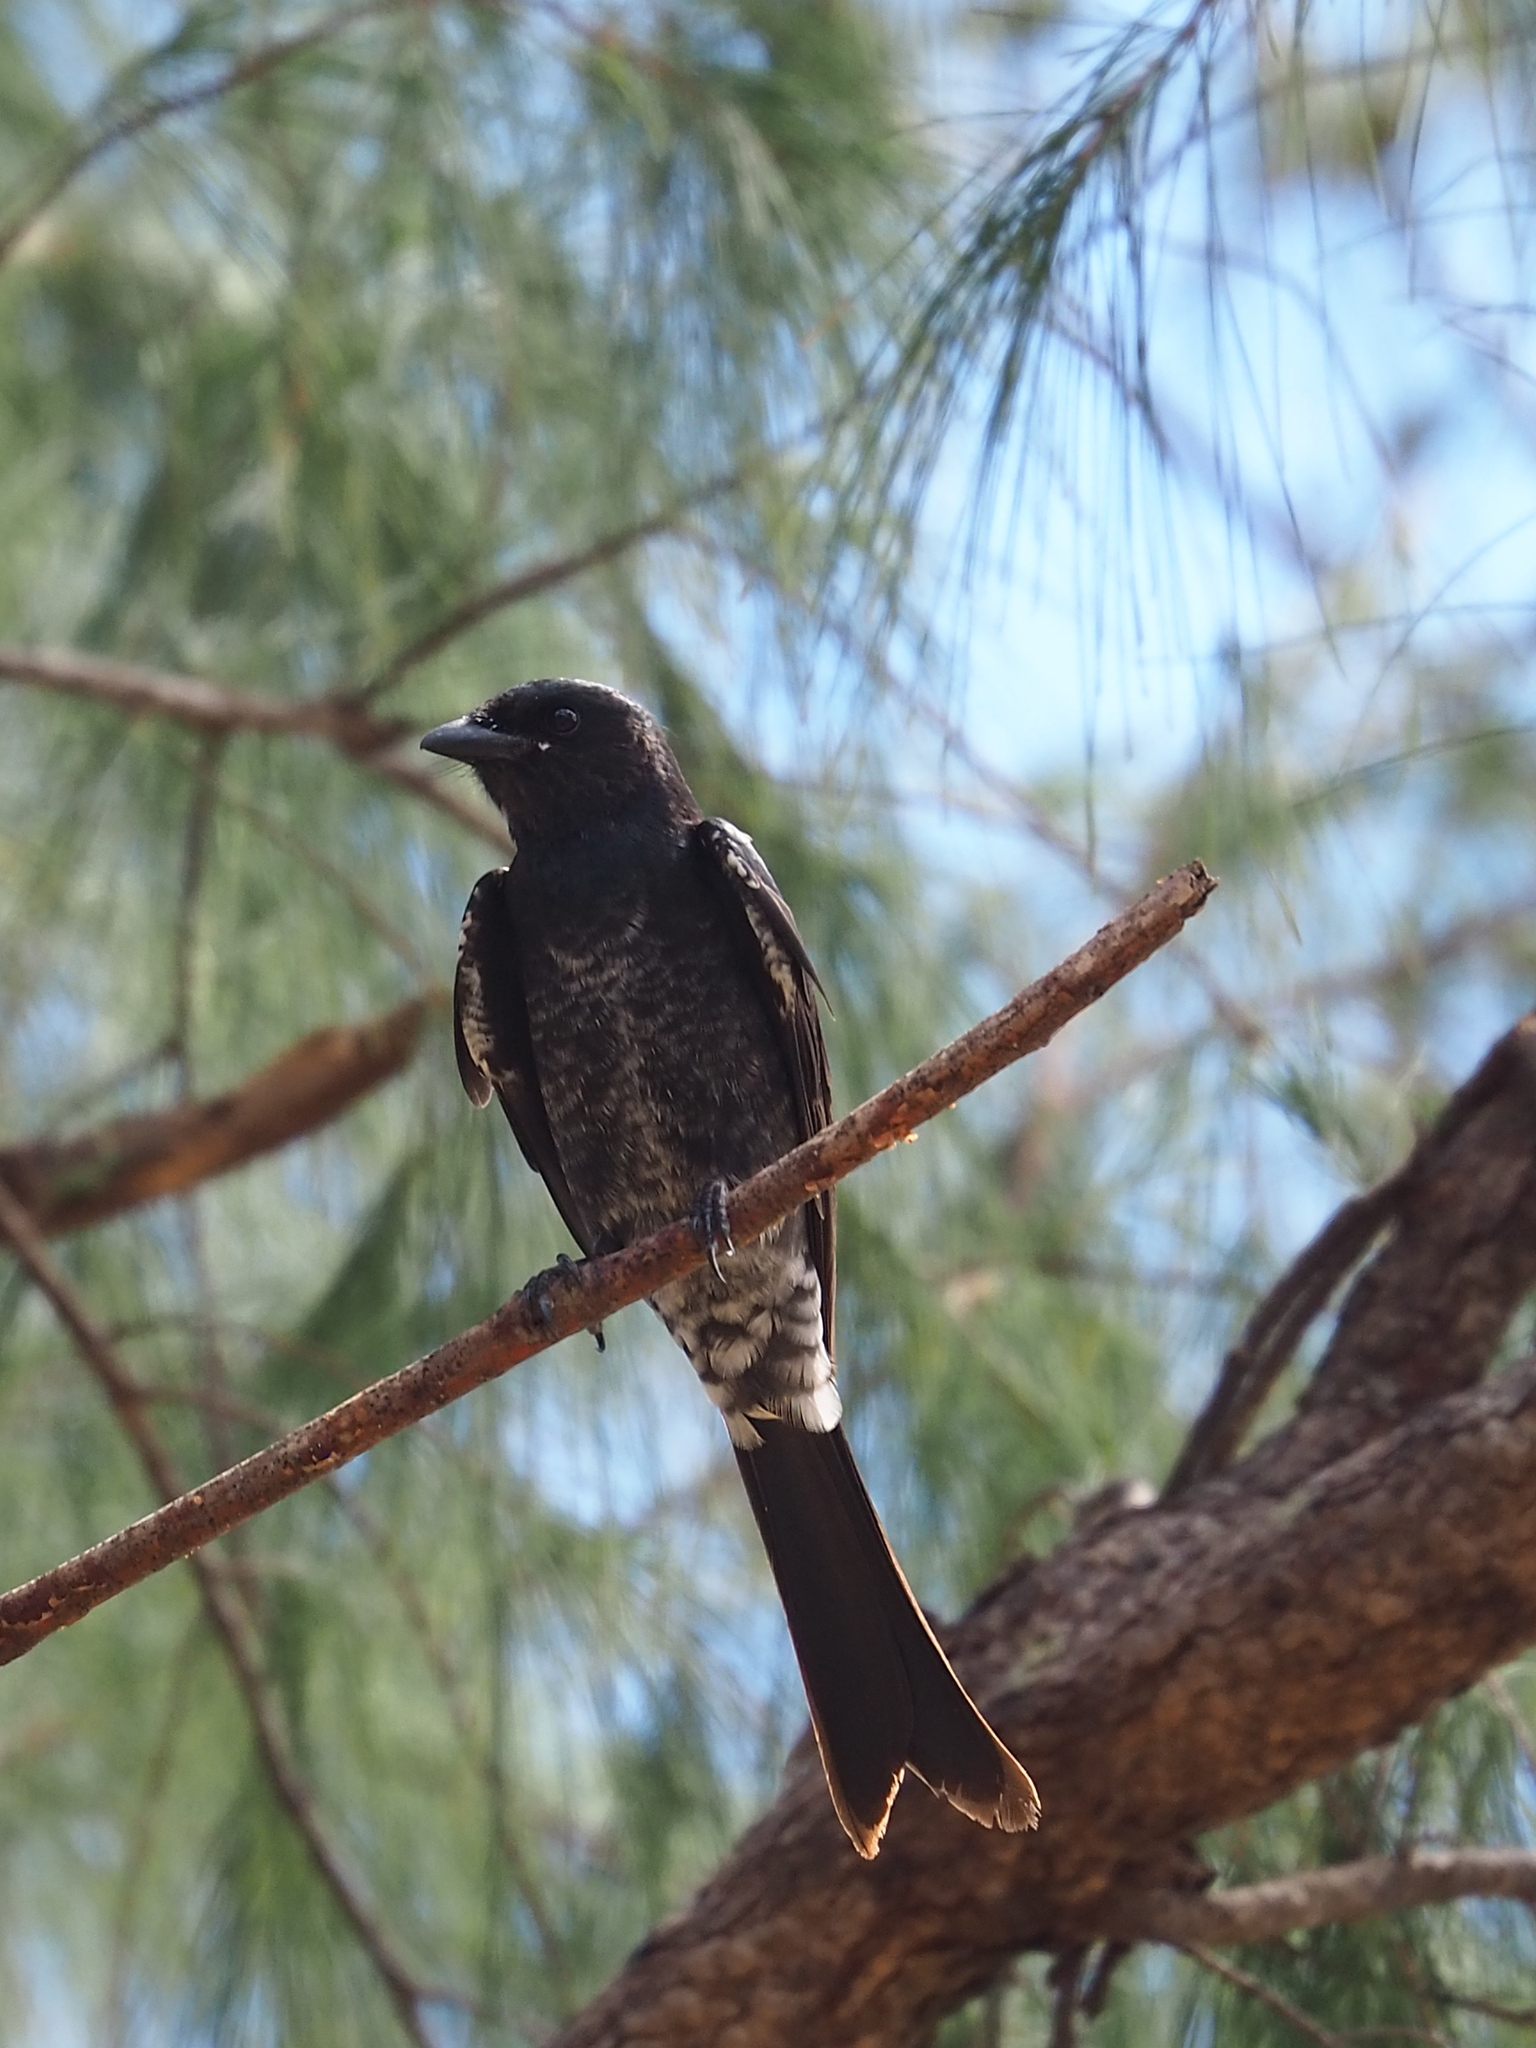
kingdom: Animalia
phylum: Chordata
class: Aves
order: Passeriformes
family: Dicruridae
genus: Dicrurus
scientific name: Dicrurus macrocercus
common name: Black drongo
